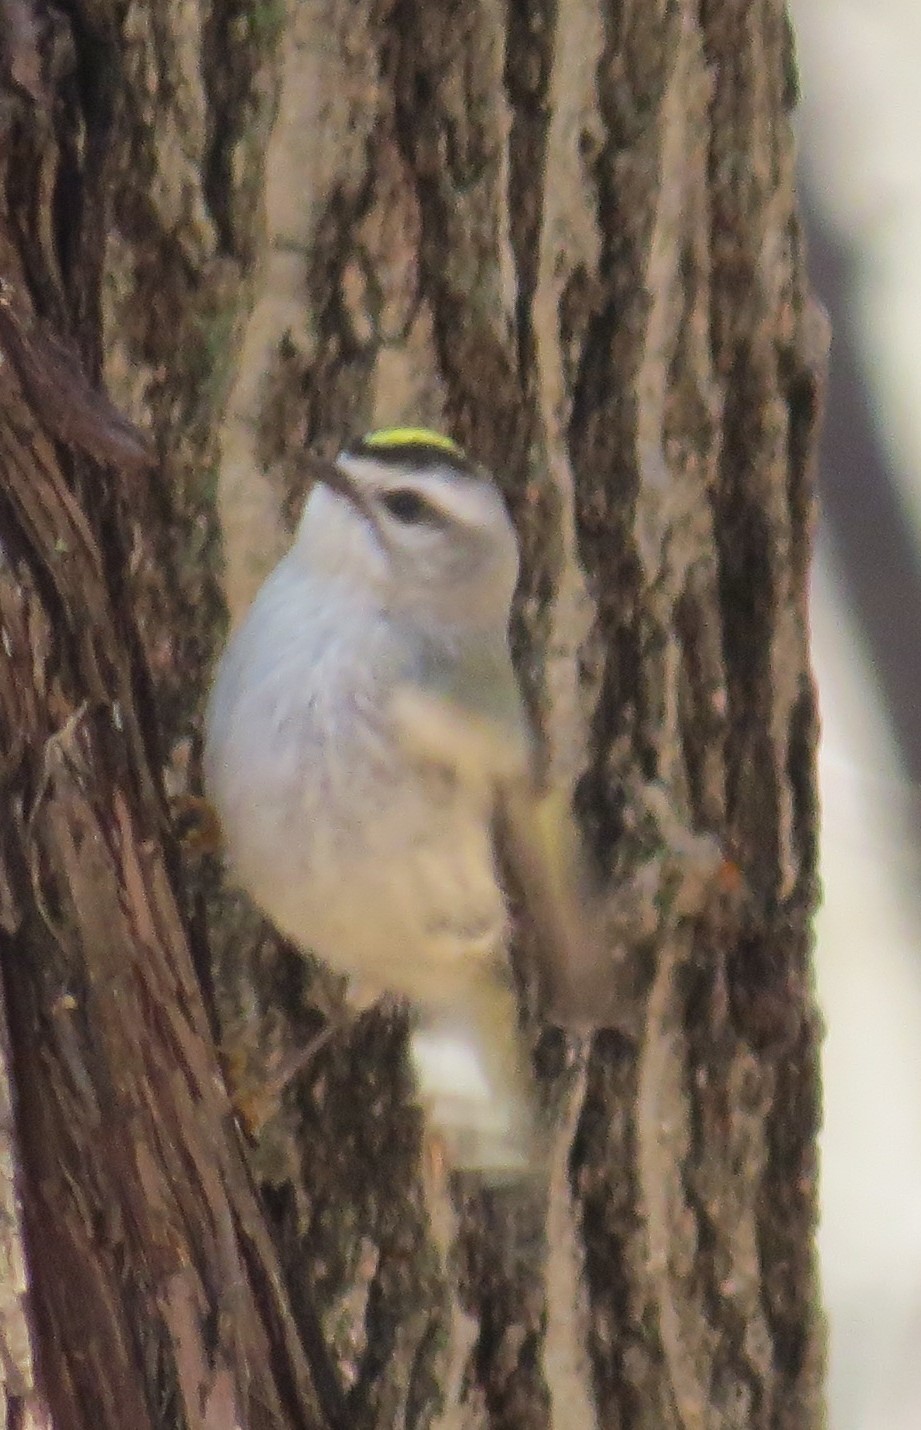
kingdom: Animalia
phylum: Chordata
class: Aves
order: Passeriformes
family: Regulidae
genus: Regulus
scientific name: Regulus satrapa
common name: Golden-crowned kinglet
